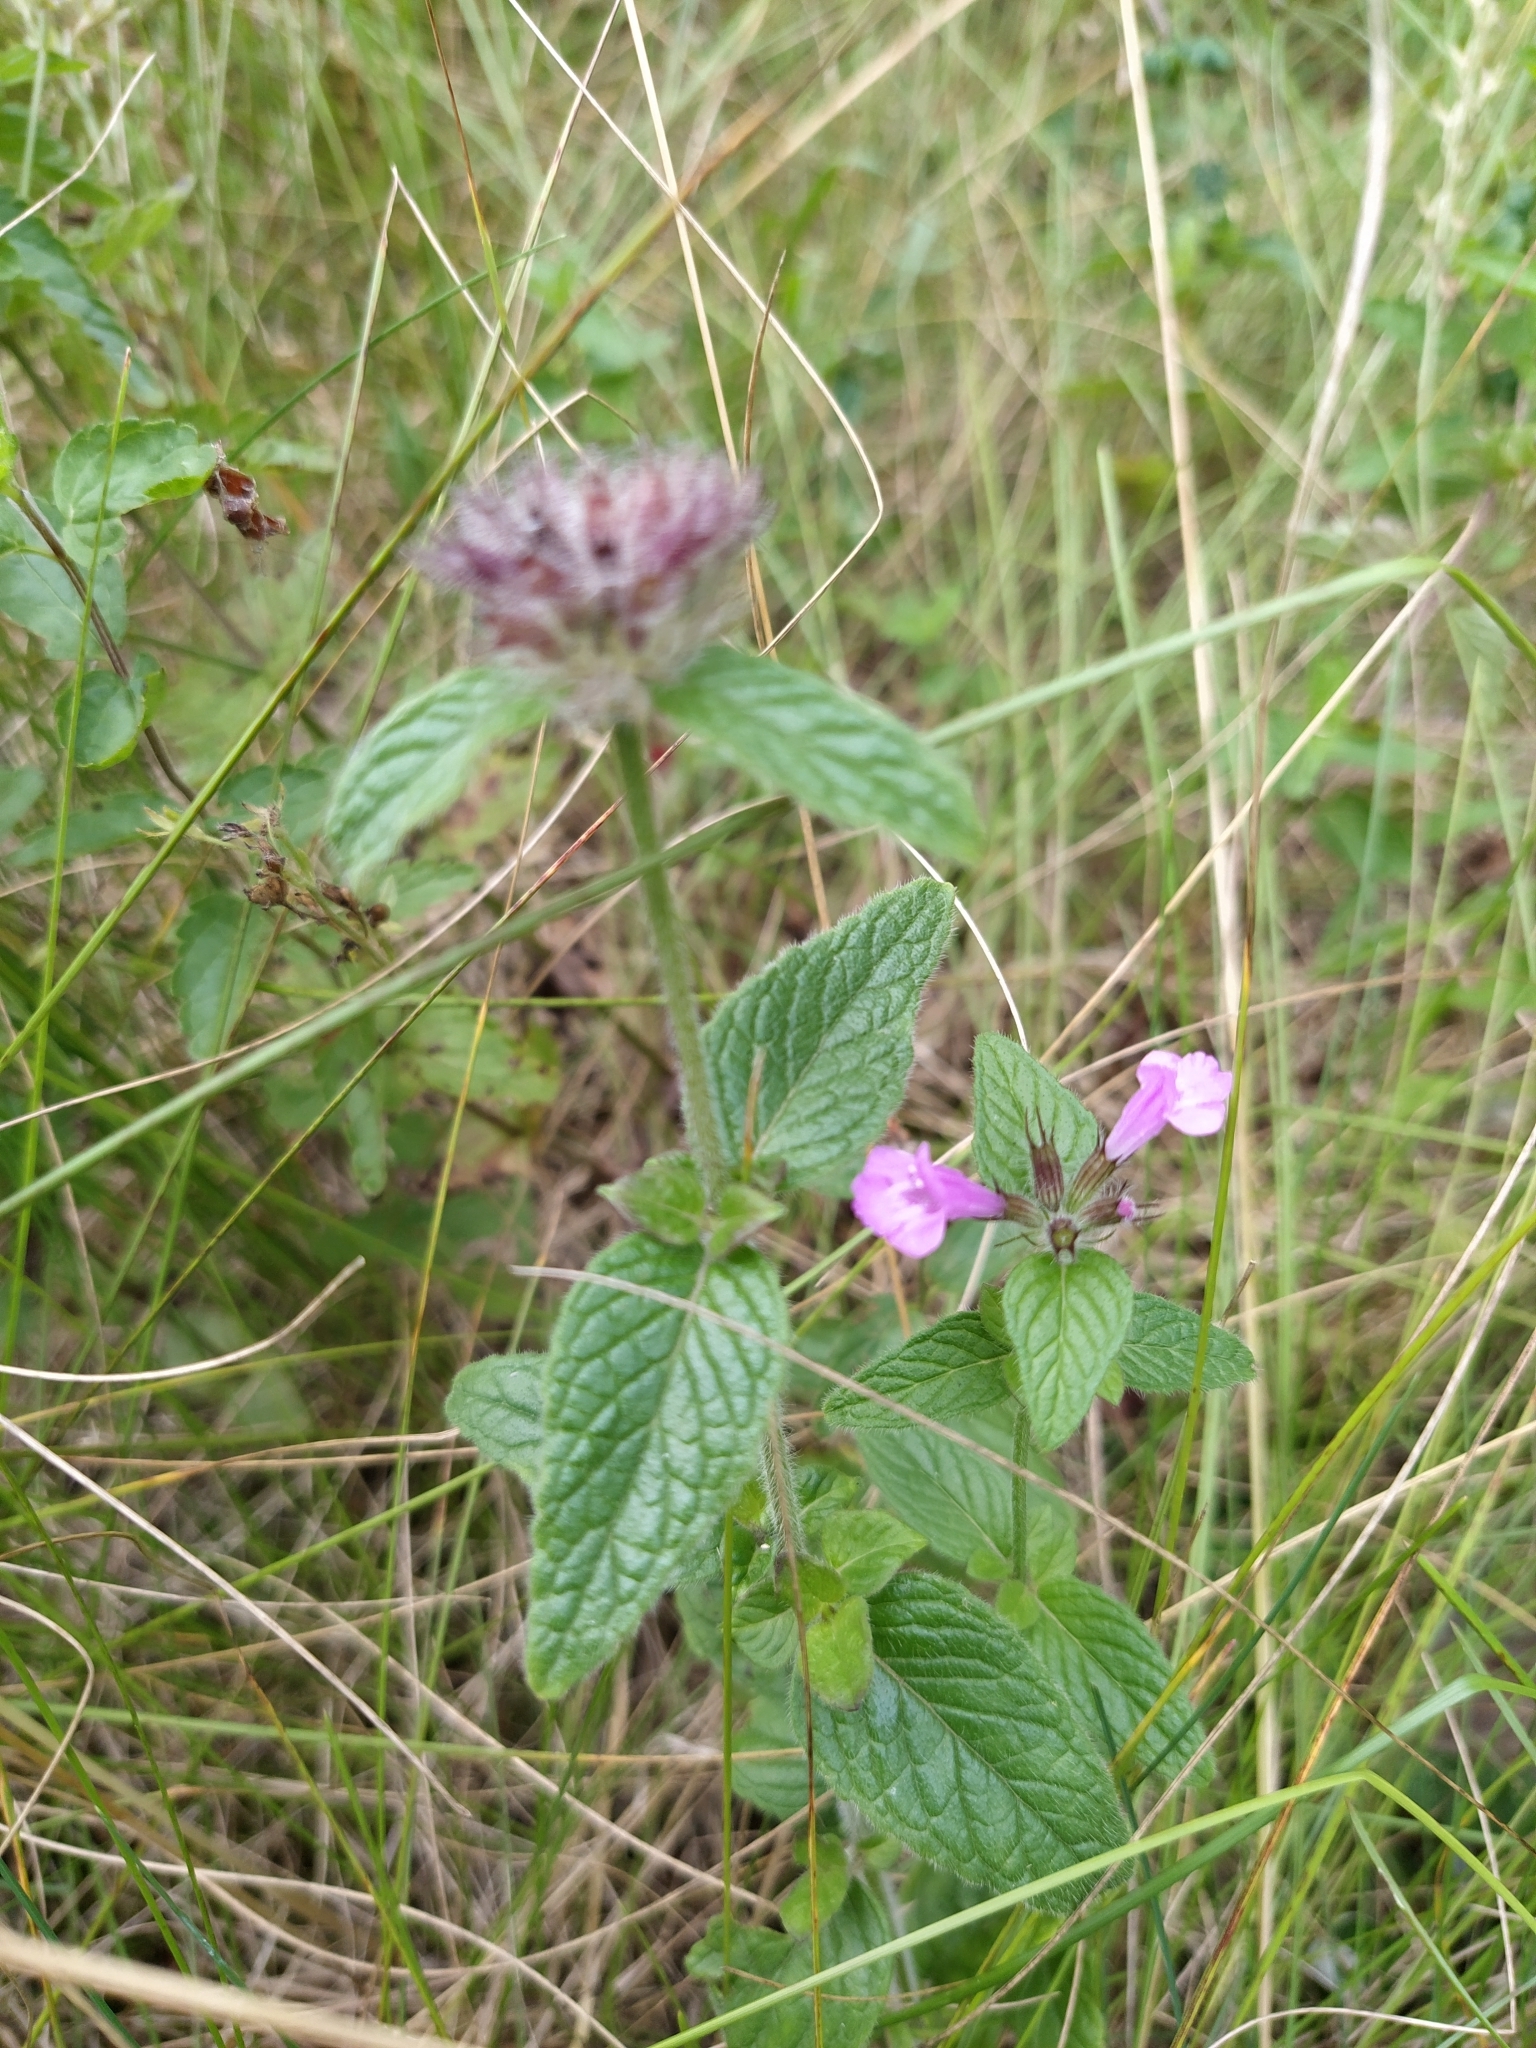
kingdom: Plantae
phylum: Tracheophyta
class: Magnoliopsida
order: Lamiales
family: Lamiaceae
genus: Clinopodium
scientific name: Clinopodium vulgare
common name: Wild basil
